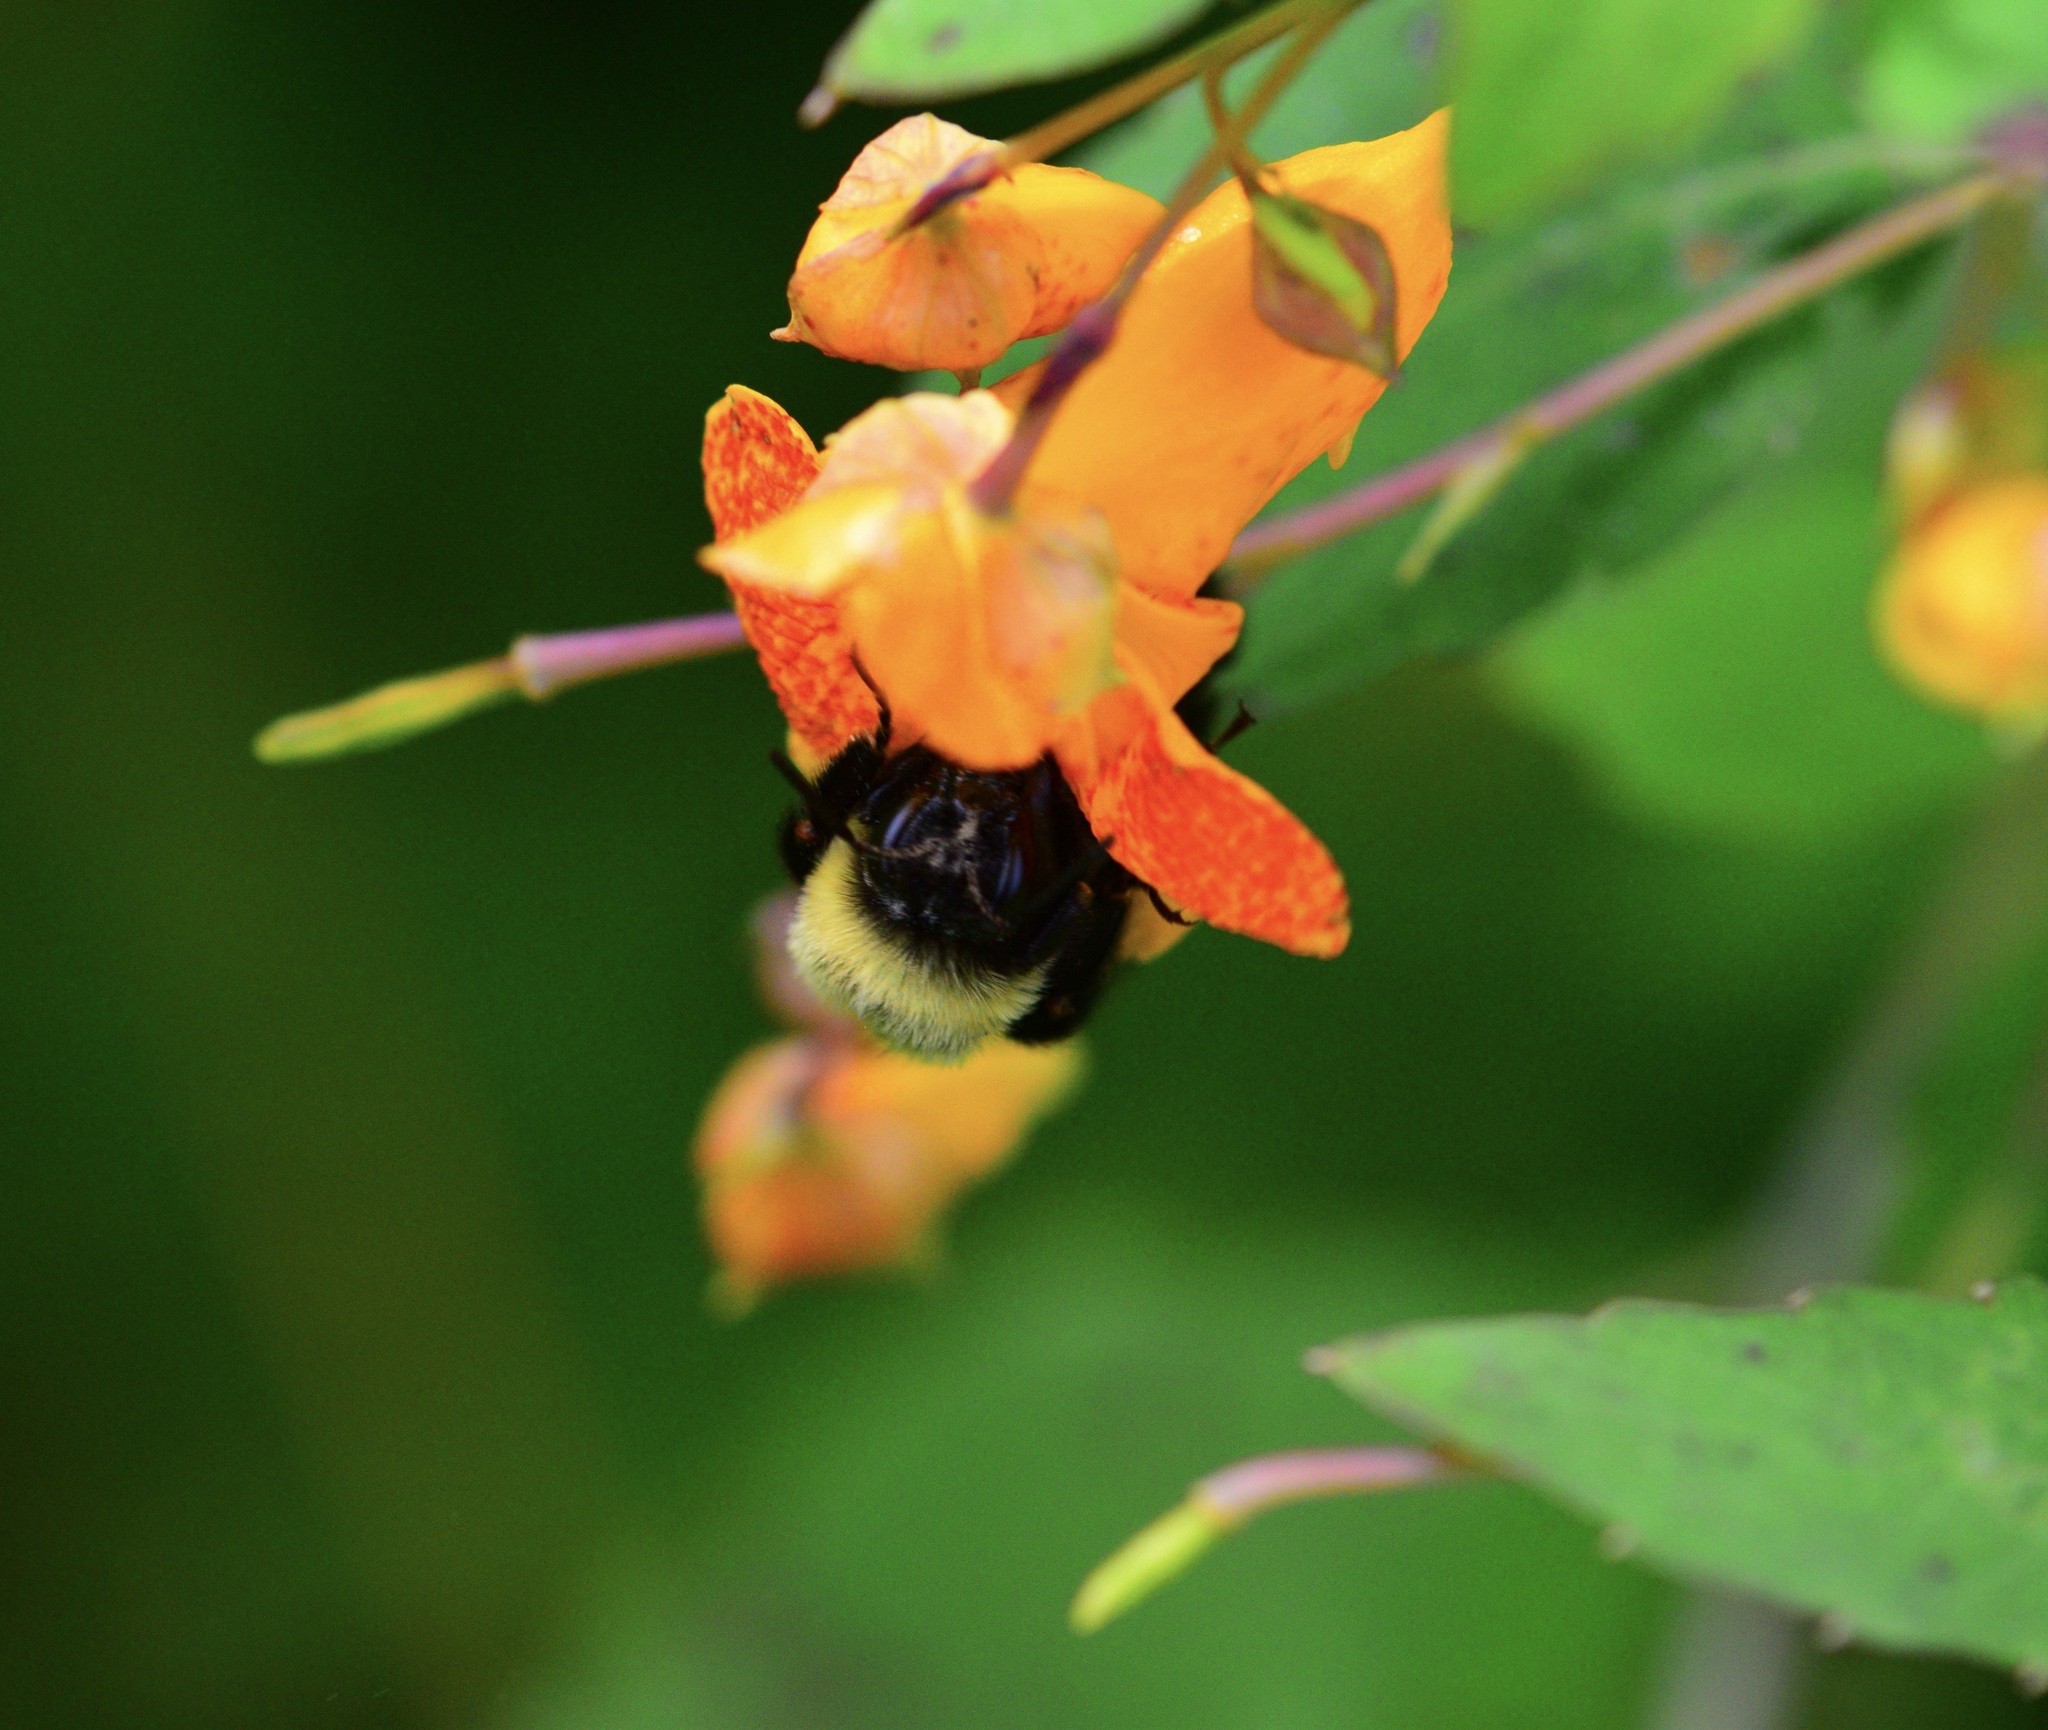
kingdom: Animalia
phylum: Arthropoda
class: Insecta
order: Hymenoptera
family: Apidae
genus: Bombus
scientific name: Bombus impatiens
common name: Common eastern bumble bee
